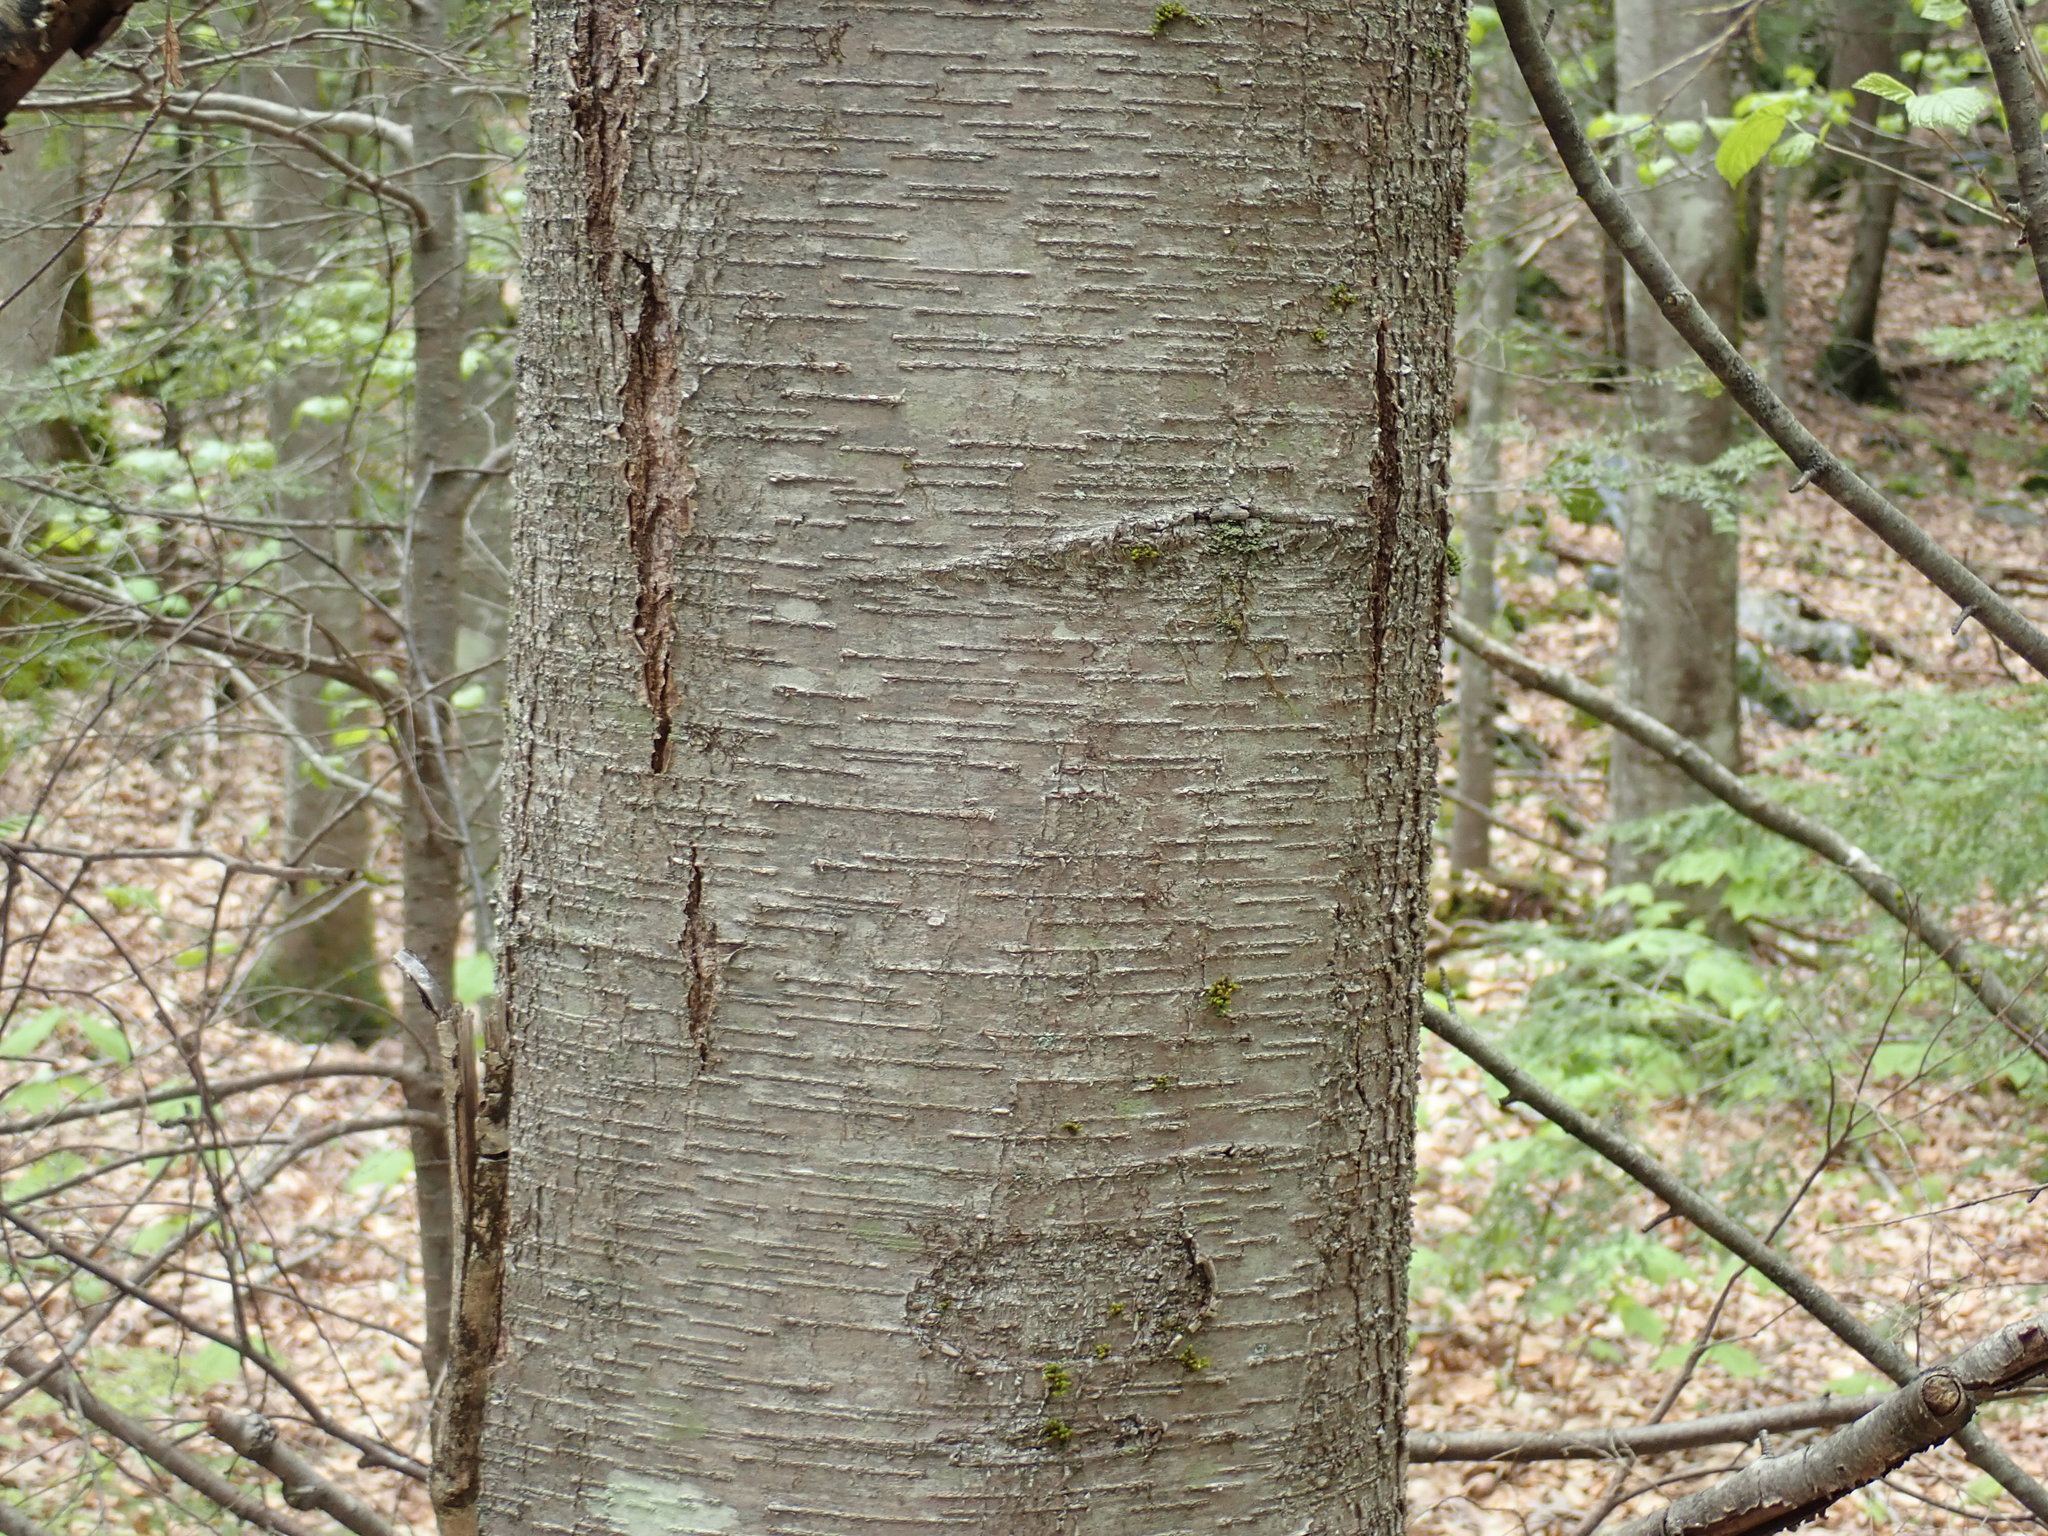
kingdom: Plantae
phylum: Tracheophyta
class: Magnoliopsida
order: Fagales
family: Betulaceae
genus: Betula
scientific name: Betula lenta
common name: Black birch
